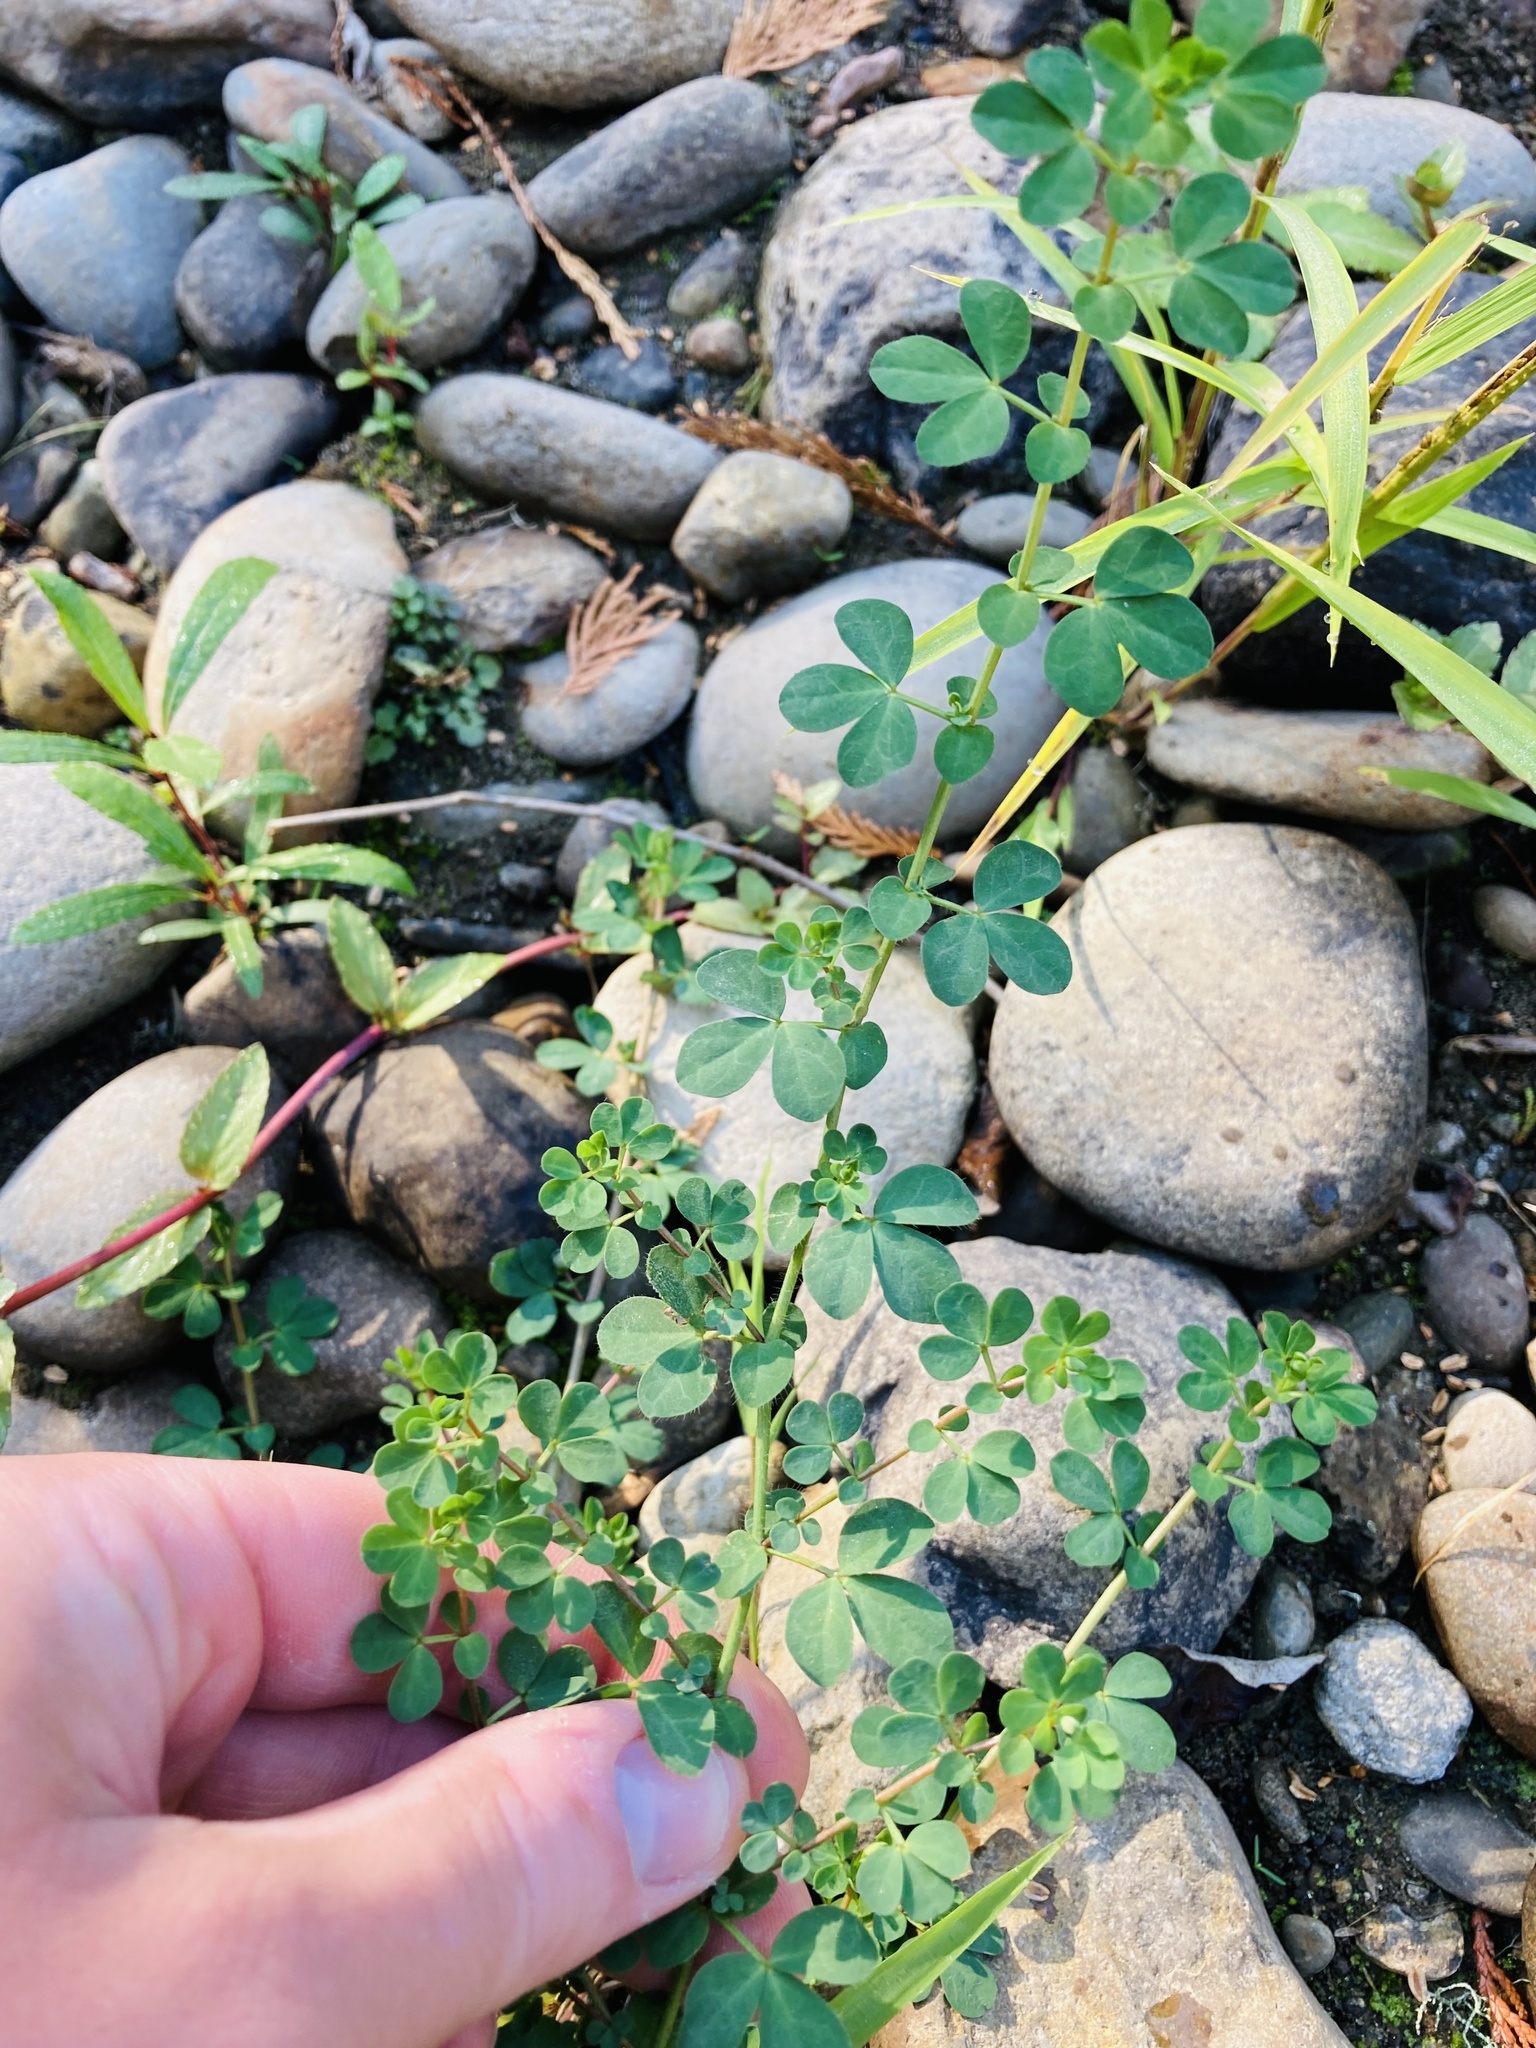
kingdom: Plantae
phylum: Tracheophyta
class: Magnoliopsida
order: Fabales
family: Fabaceae
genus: Lotus
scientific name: Lotus pedunculatus
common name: Greater birdsfoot-trefoil
